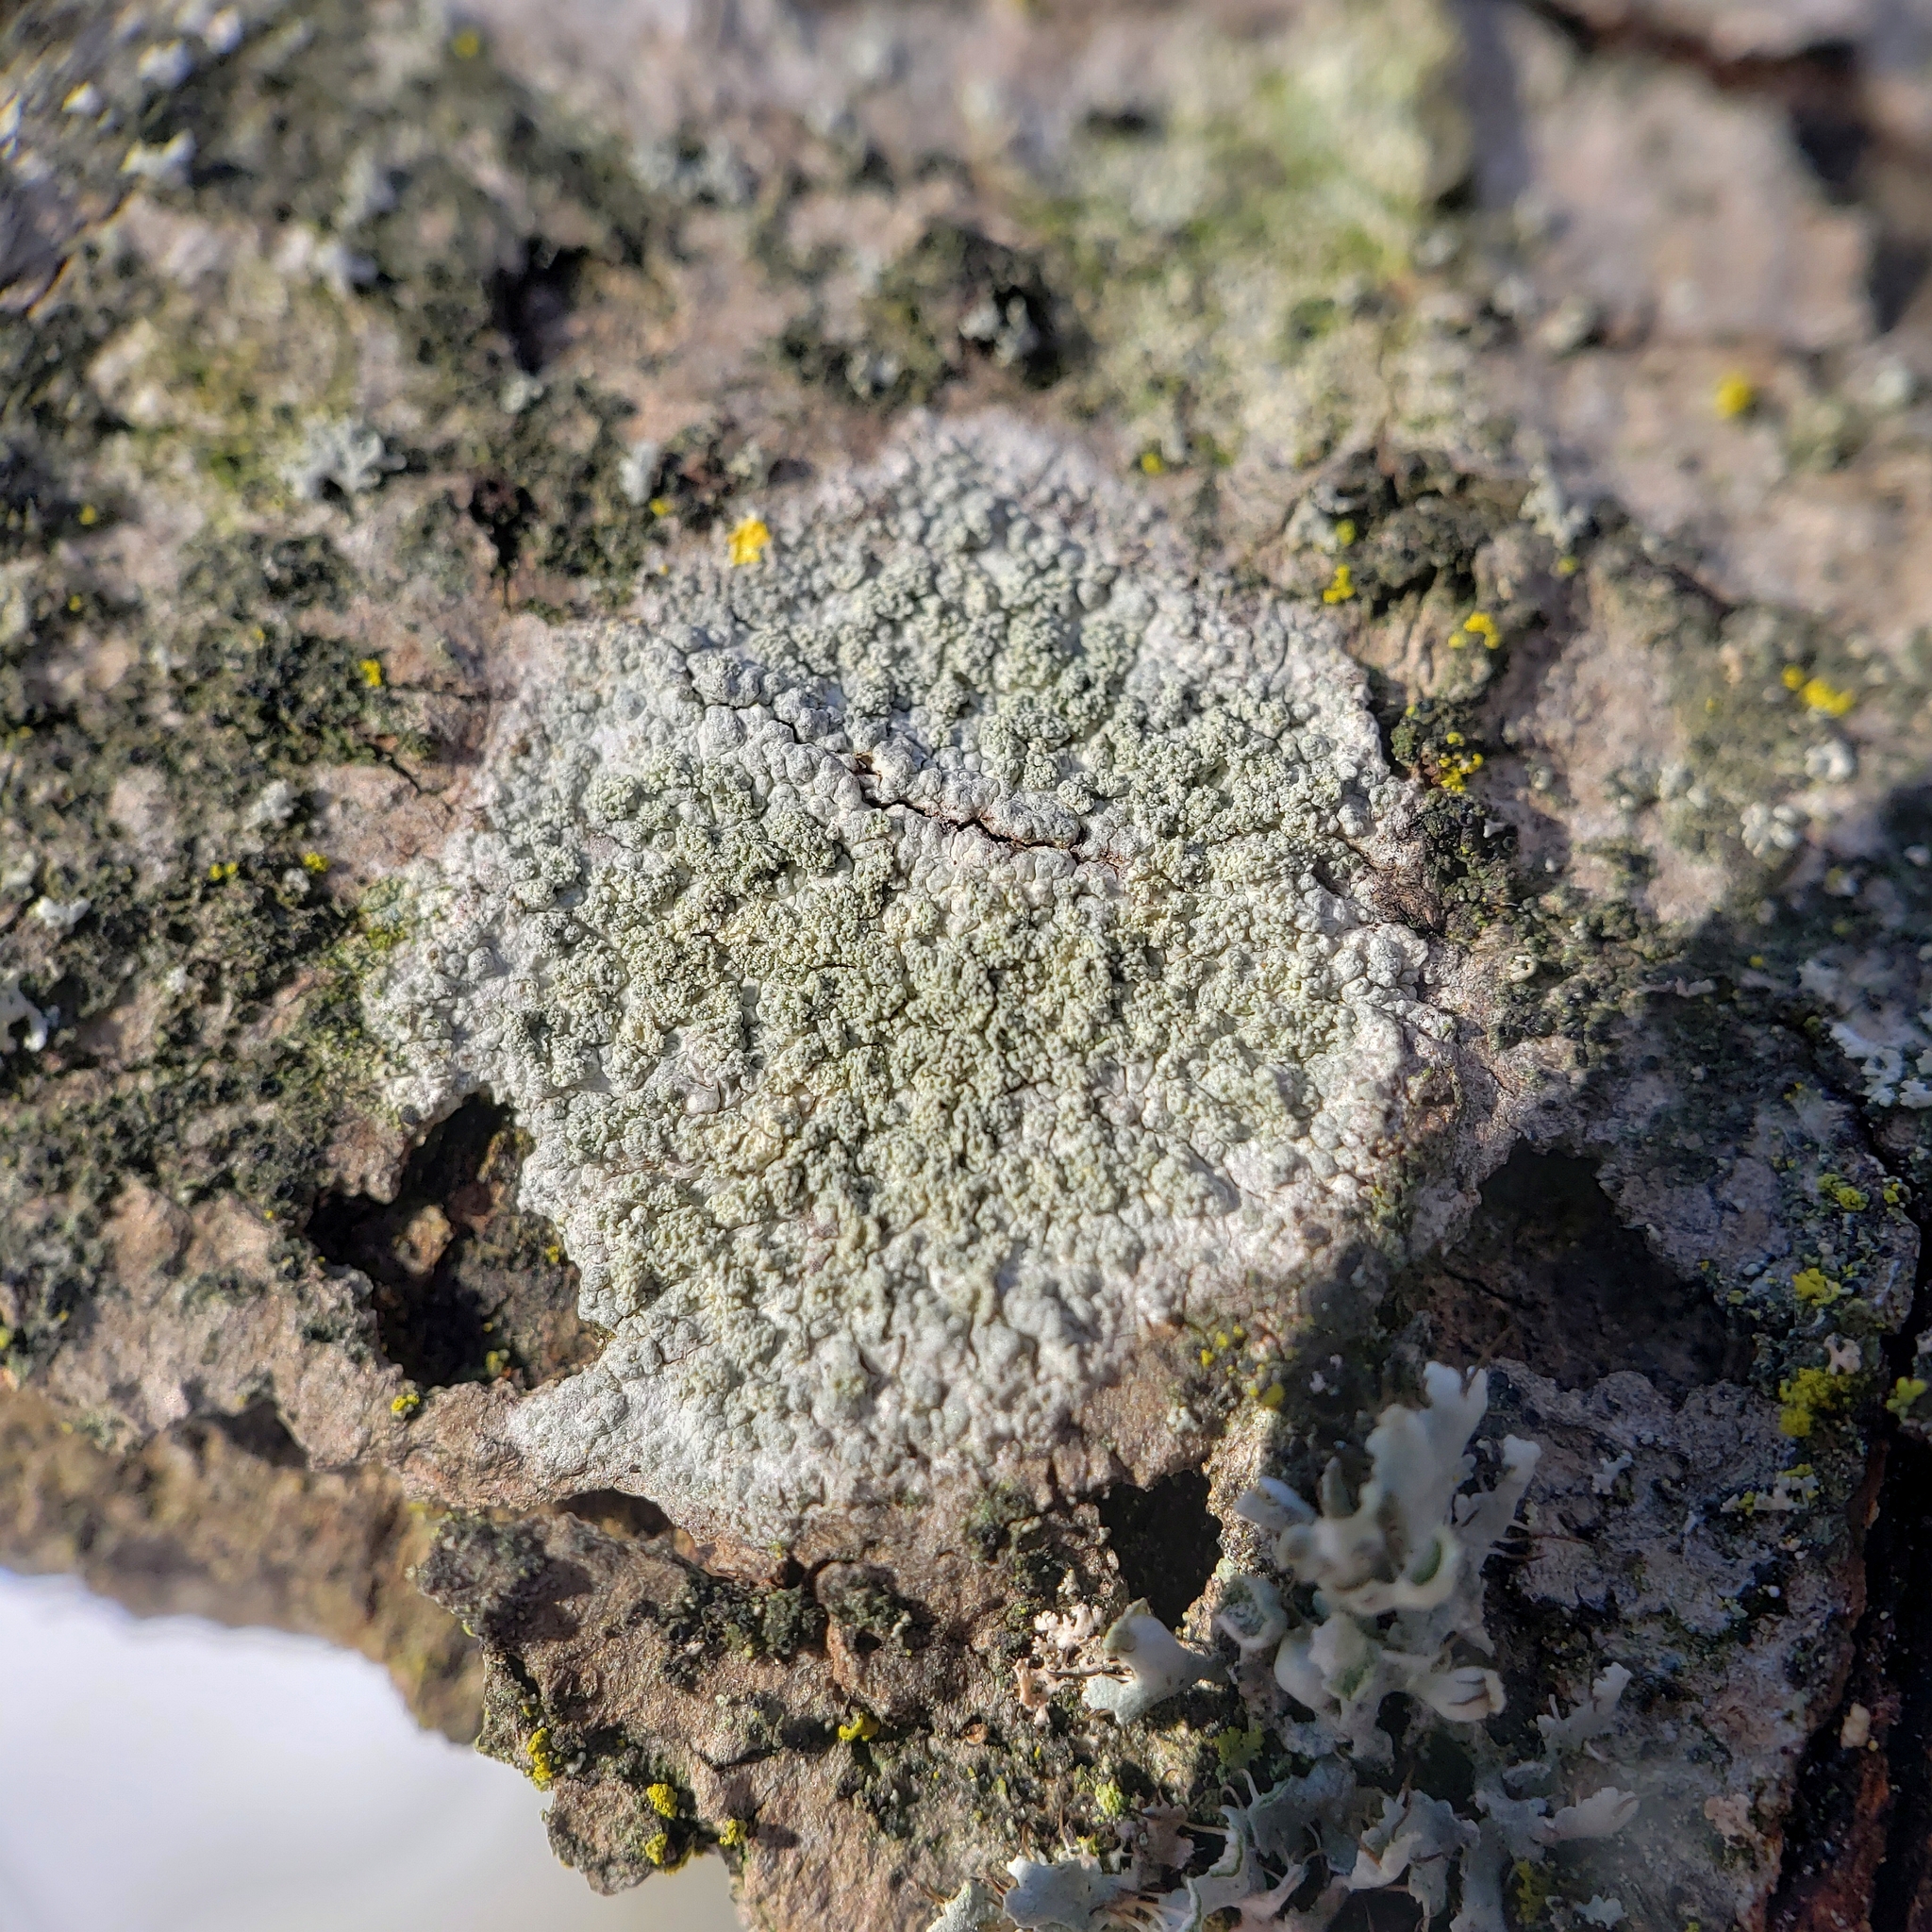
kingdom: Fungi
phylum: Ascomycota
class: Lecanoromycetes
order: Pertusariales
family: Ochrolechiaceae
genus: Ochrolechia
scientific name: Ochrolechia arborea
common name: Tree saucer lichen
